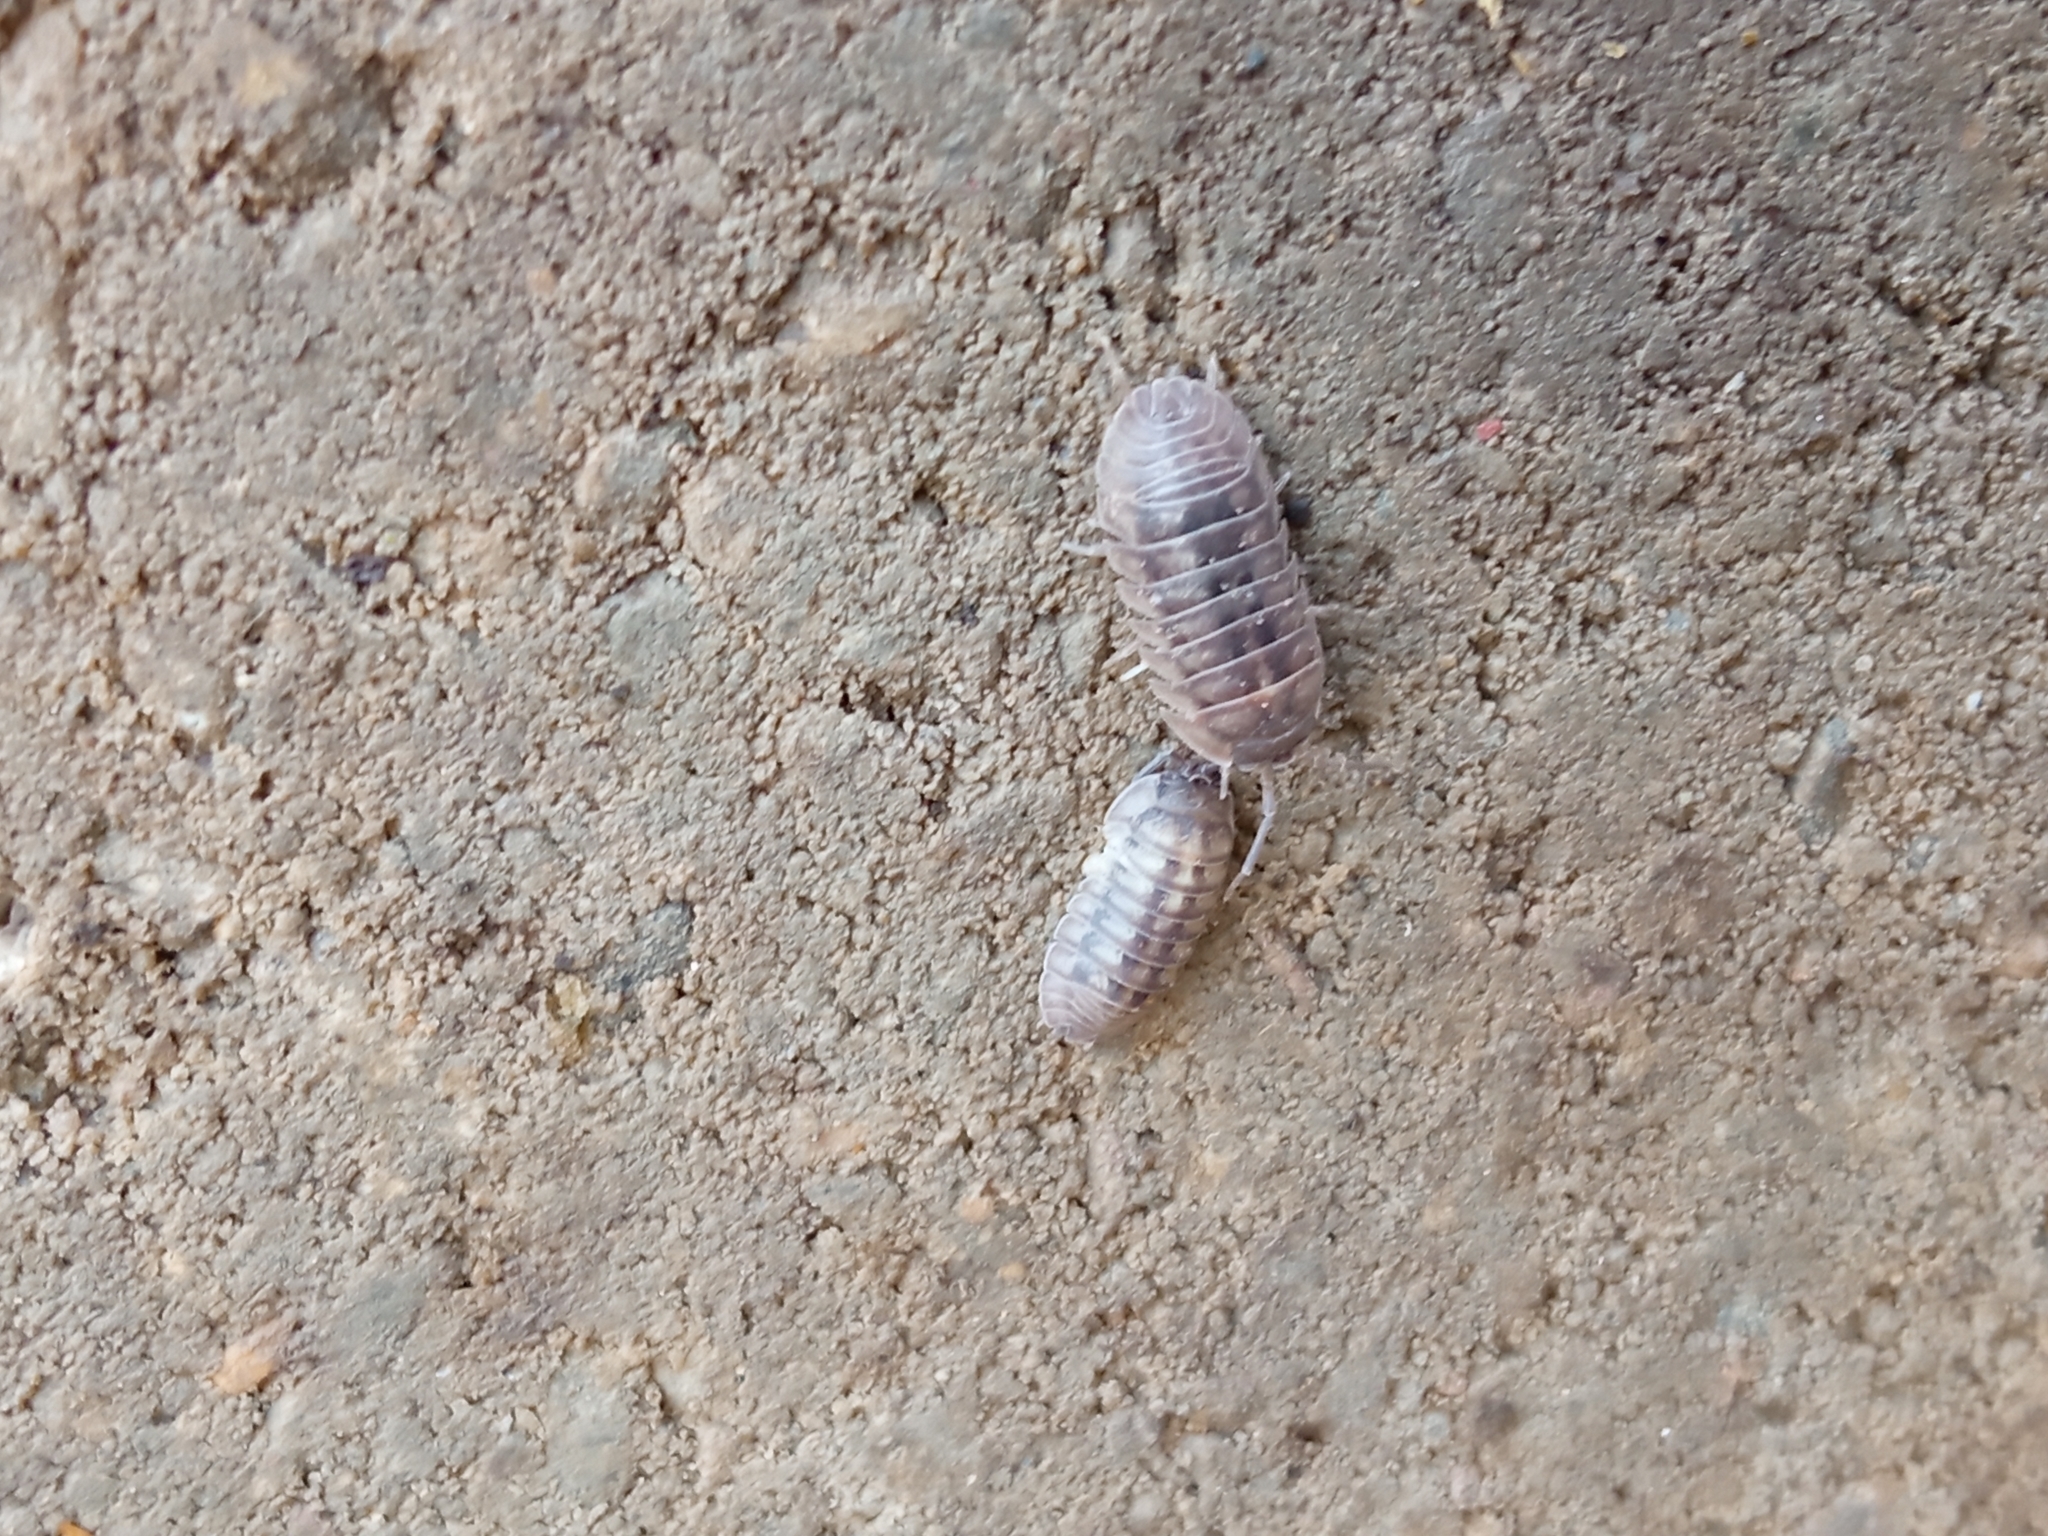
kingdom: Animalia
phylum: Arthropoda
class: Malacostraca
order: Isopoda
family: Armadillidiidae
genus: Armadillidium
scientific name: Armadillidium nasatum
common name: Isopod
